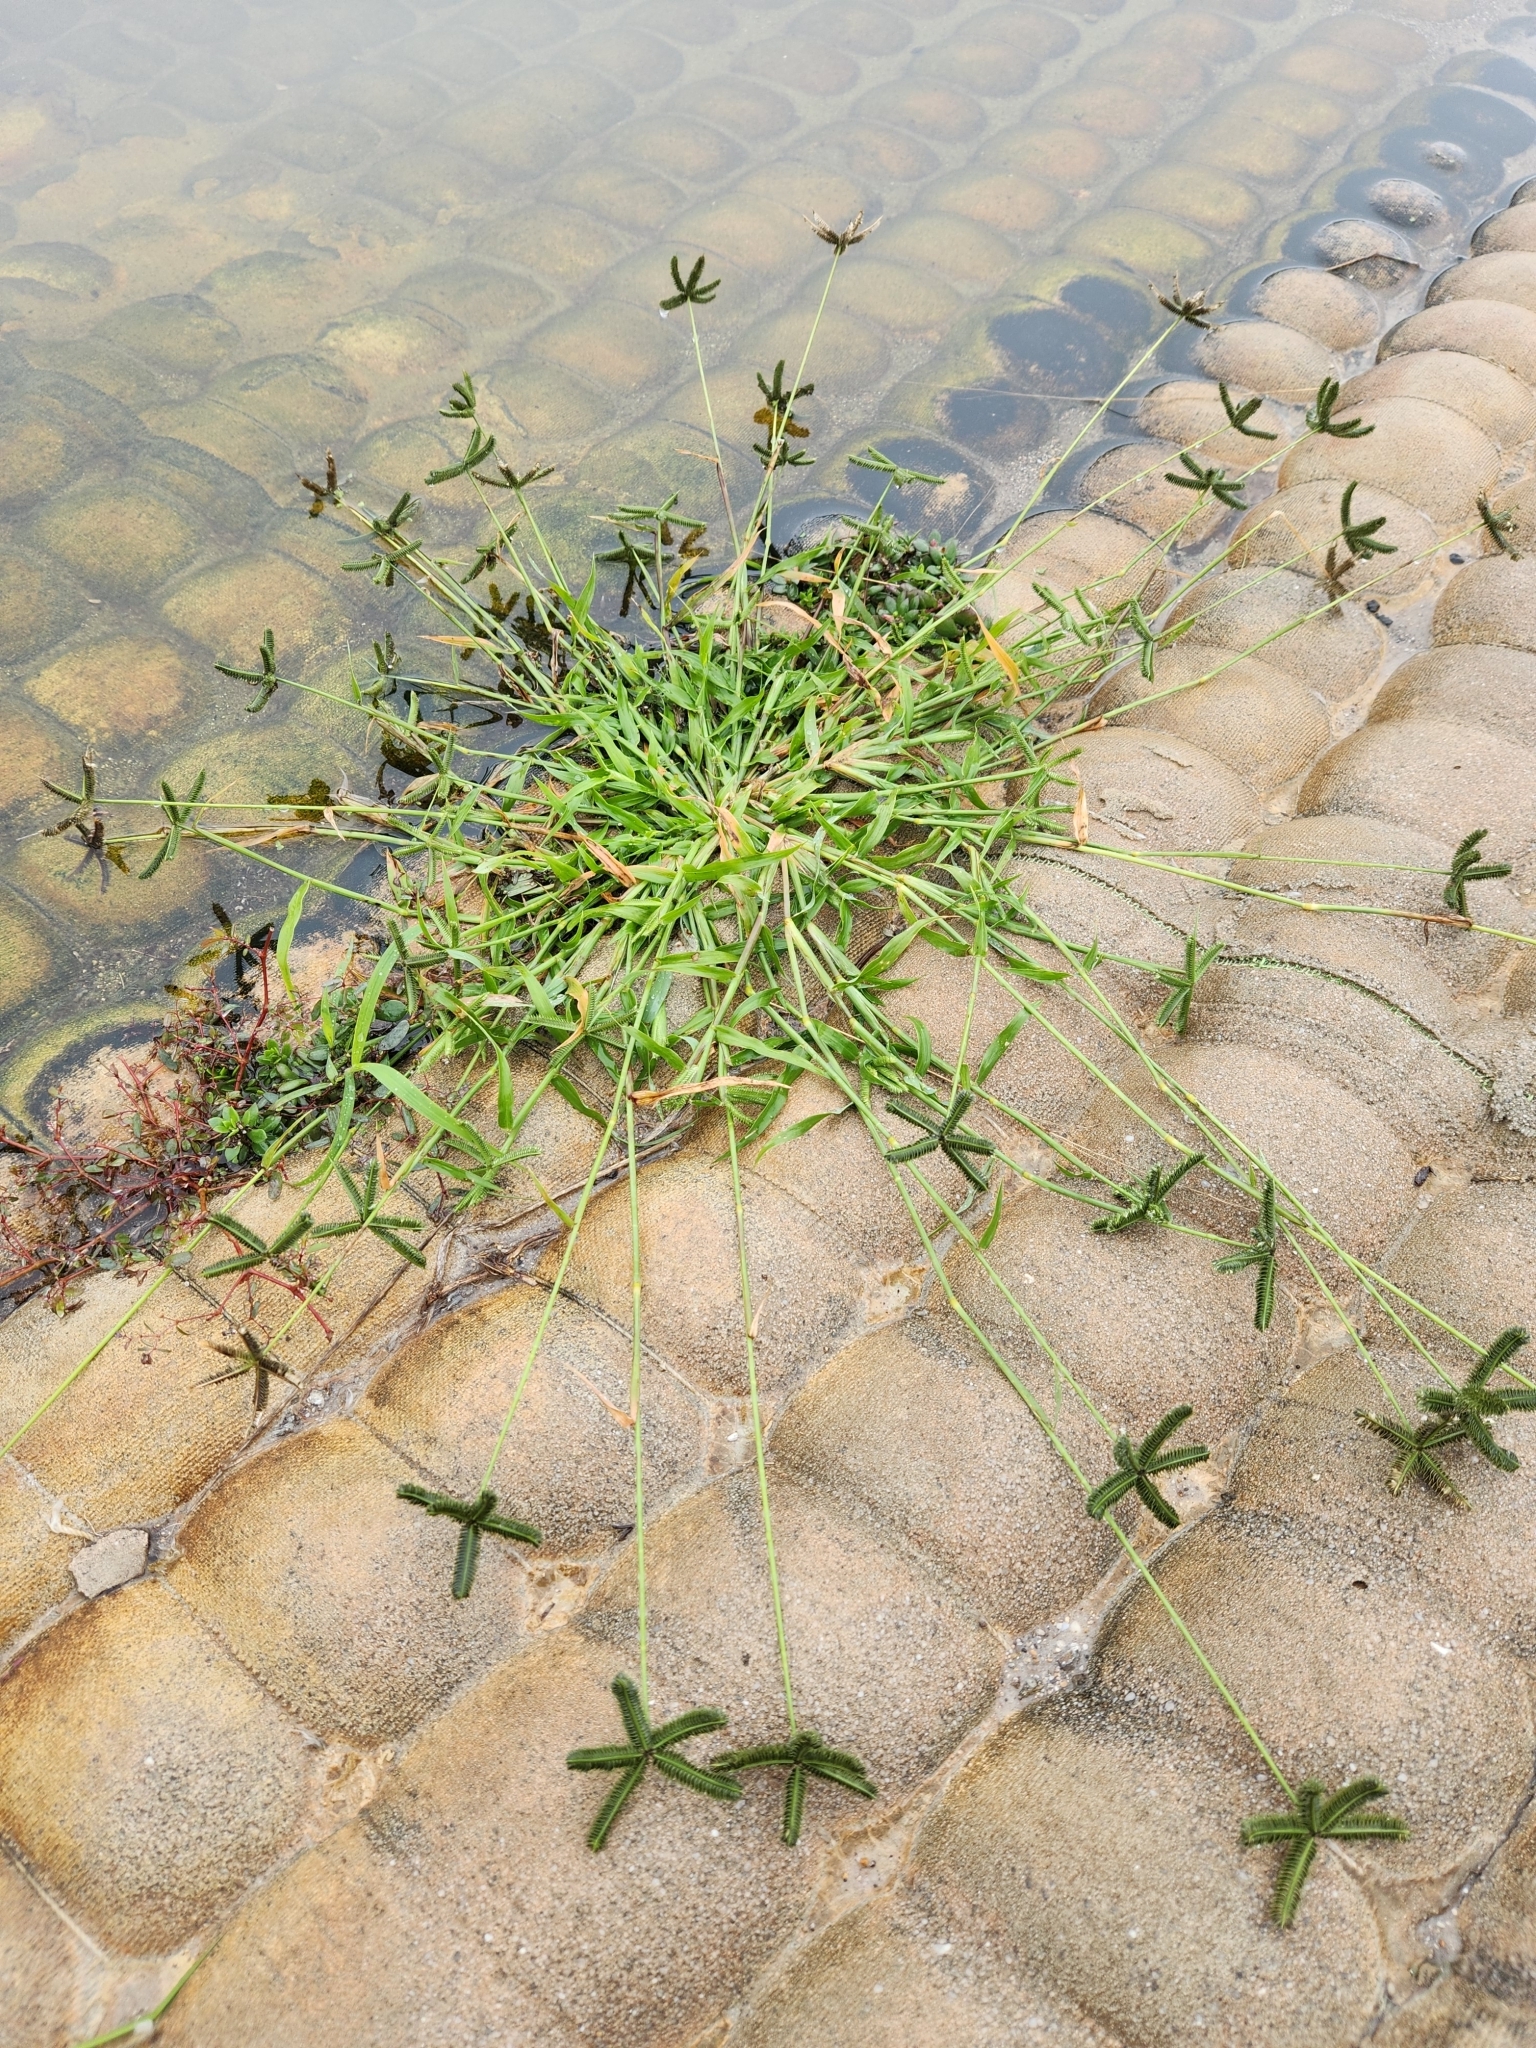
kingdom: Plantae
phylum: Tracheophyta
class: Liliopsida
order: Poales
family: Poaceae
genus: Dactyloctenium
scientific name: Dactyloctenium aegyptium
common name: Egyptian grass
